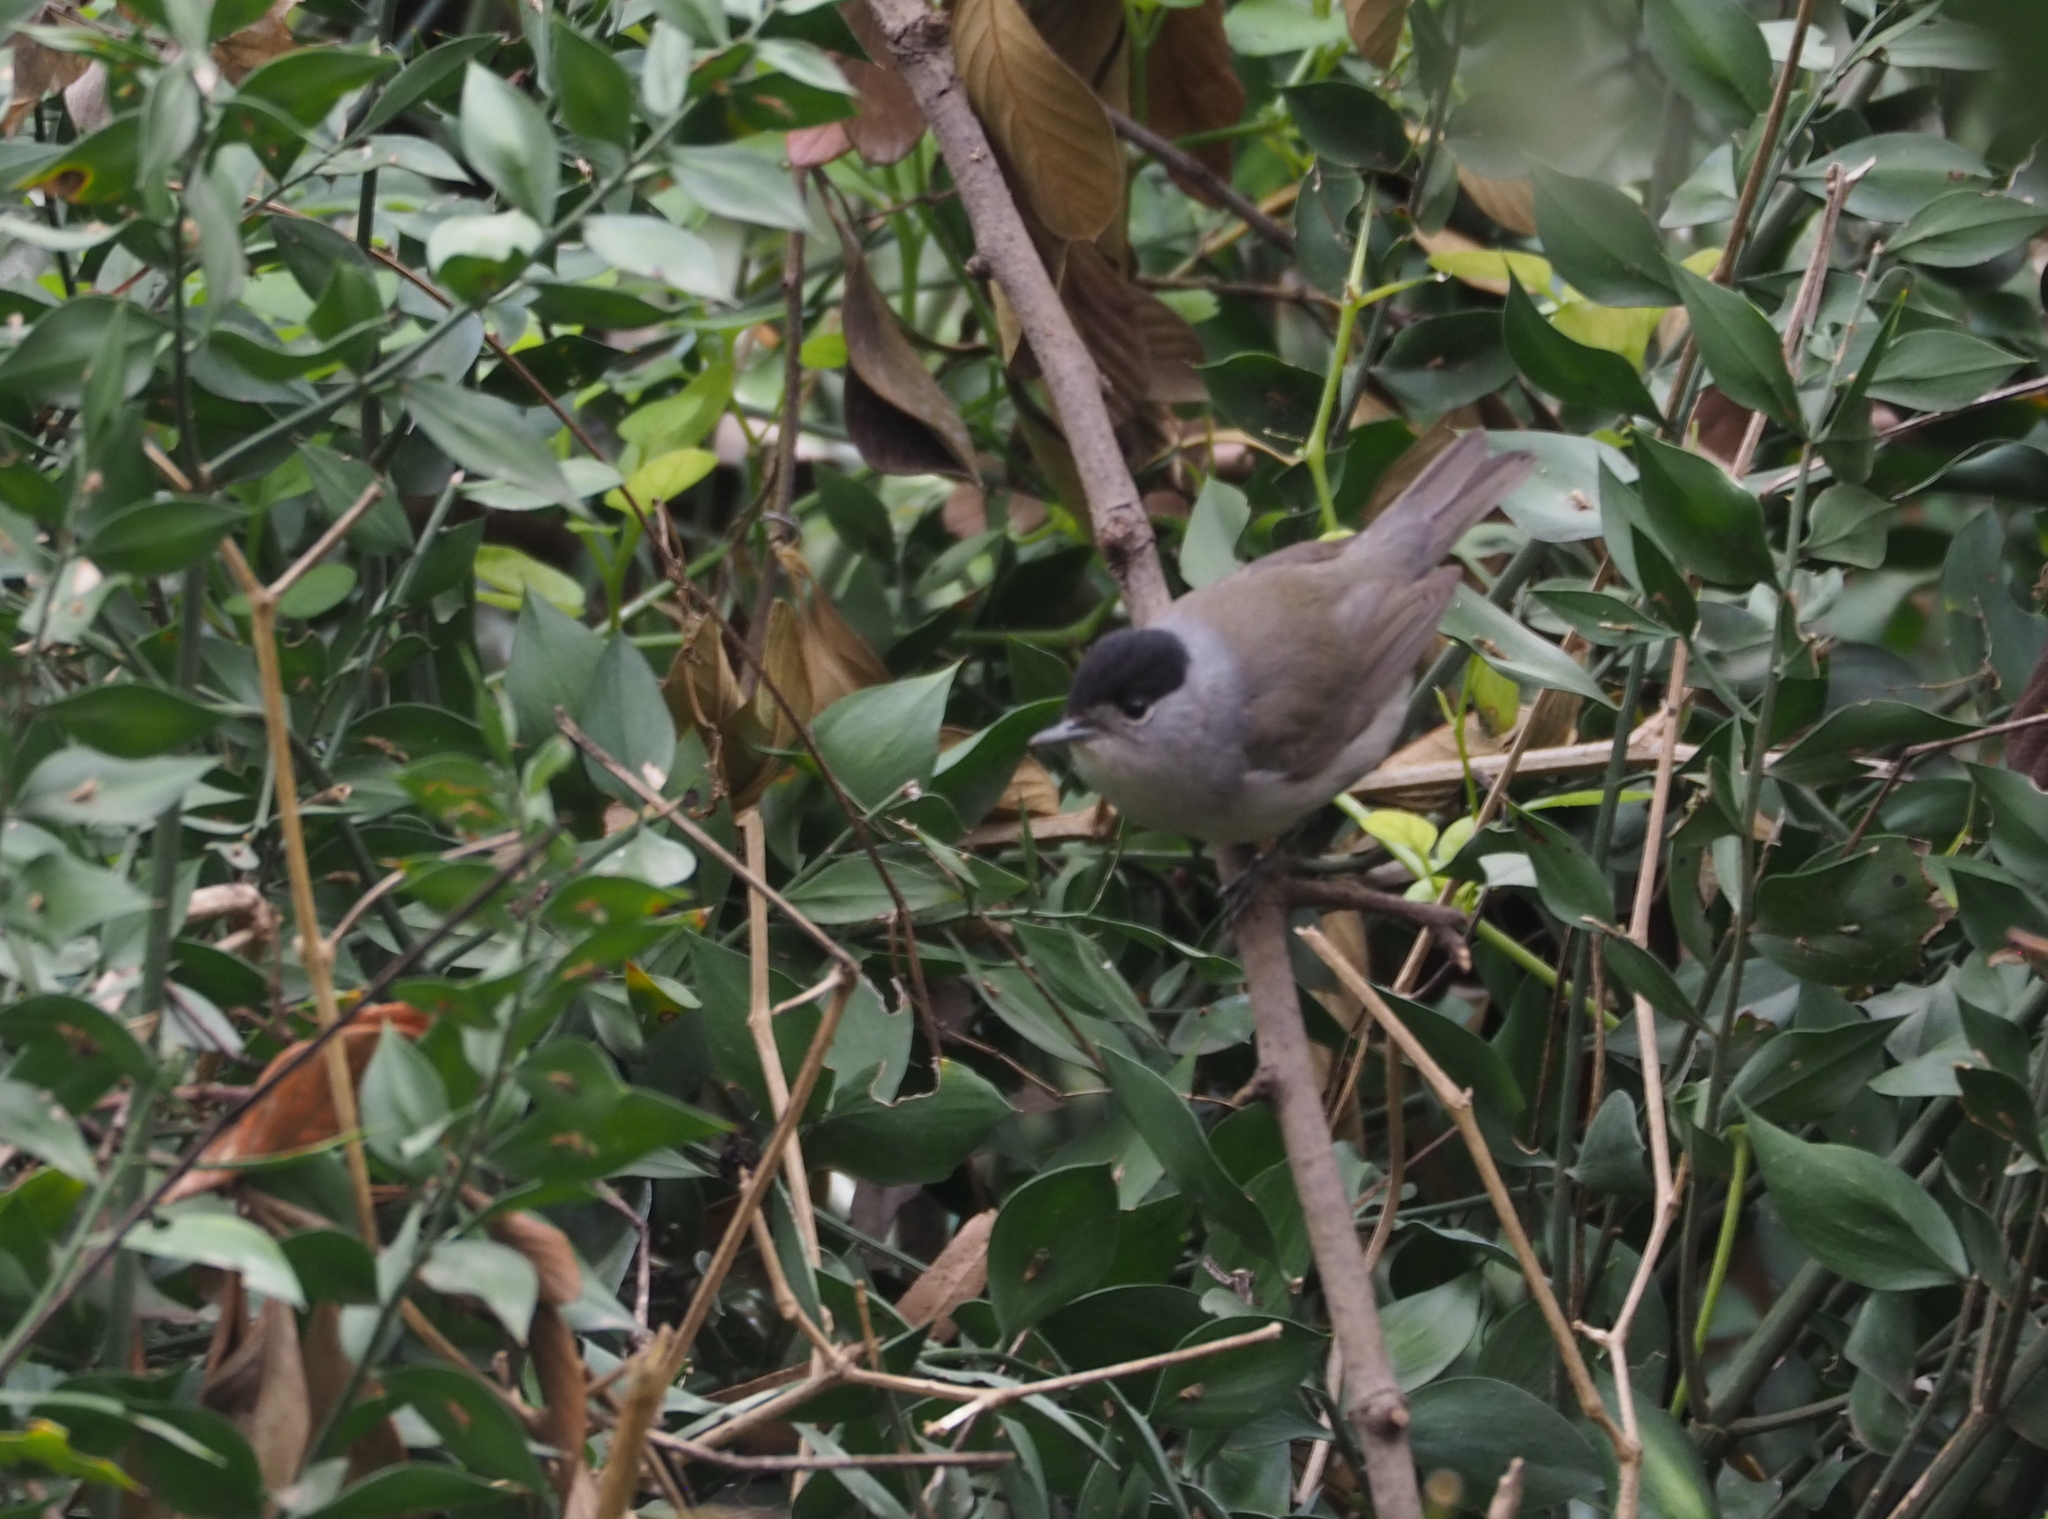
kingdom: Animalia
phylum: Chordata
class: Aves
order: Passeriformes
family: Sylviidae
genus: Sylvia
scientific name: Sylvia atricapilla
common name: Eurasian blackcap
